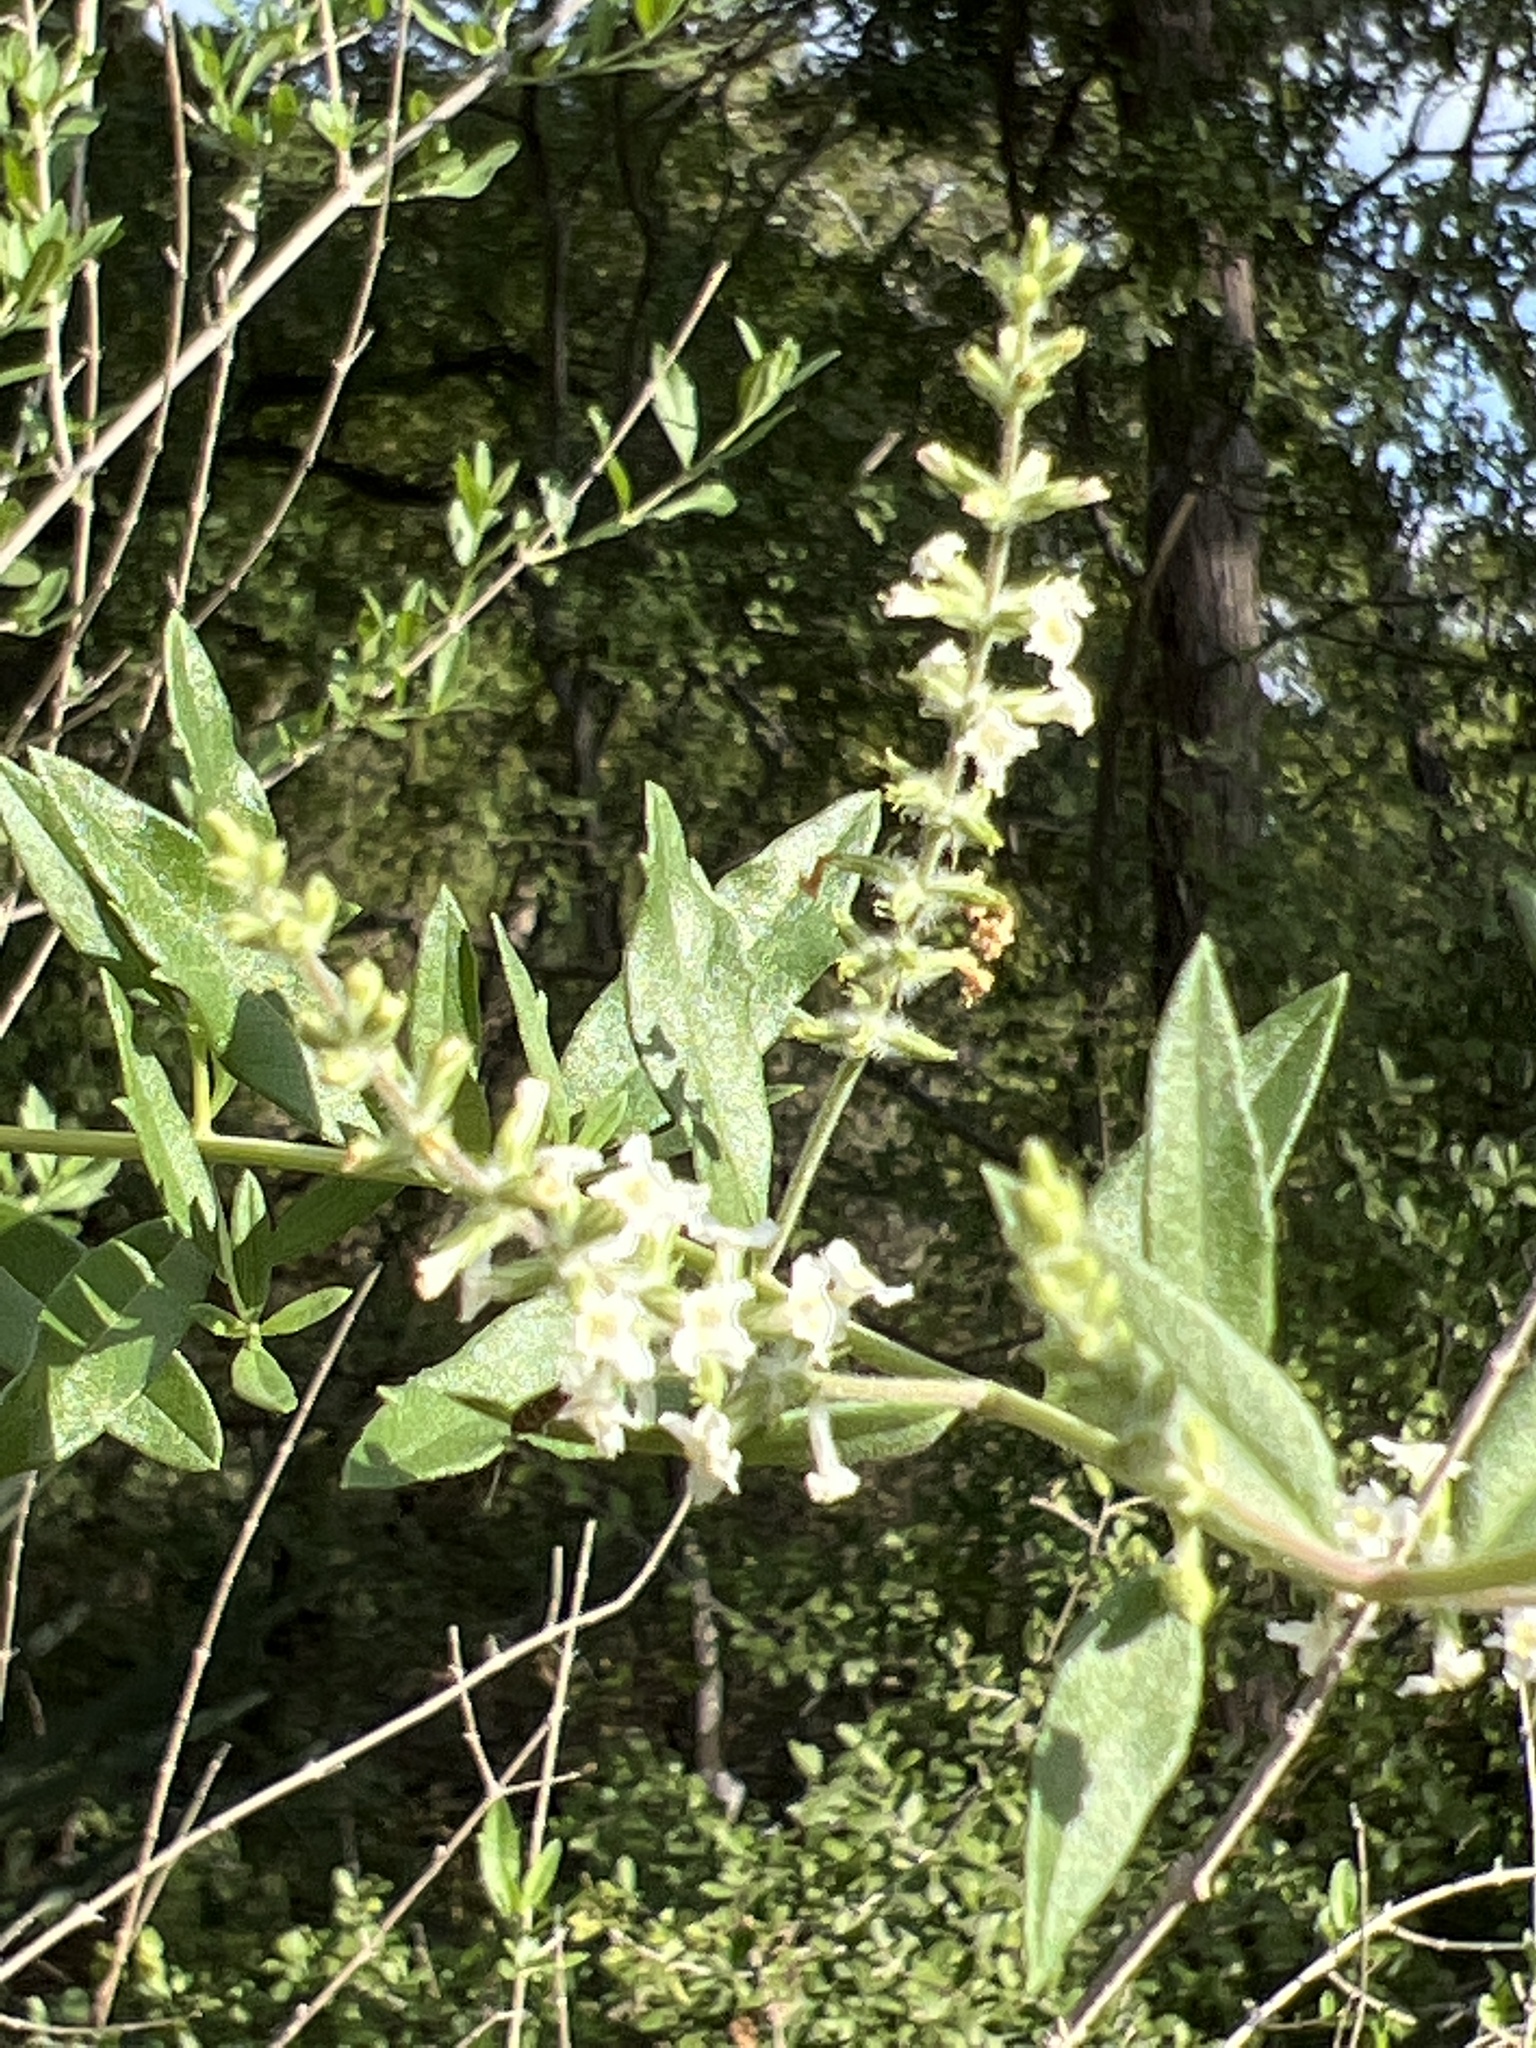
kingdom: Plantae
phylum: Tracheophyta
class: Magnoliopsida
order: Lamiales
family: Verbenaceae
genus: Aloysia
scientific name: Aloysia gratissima
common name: Common bee-brush
